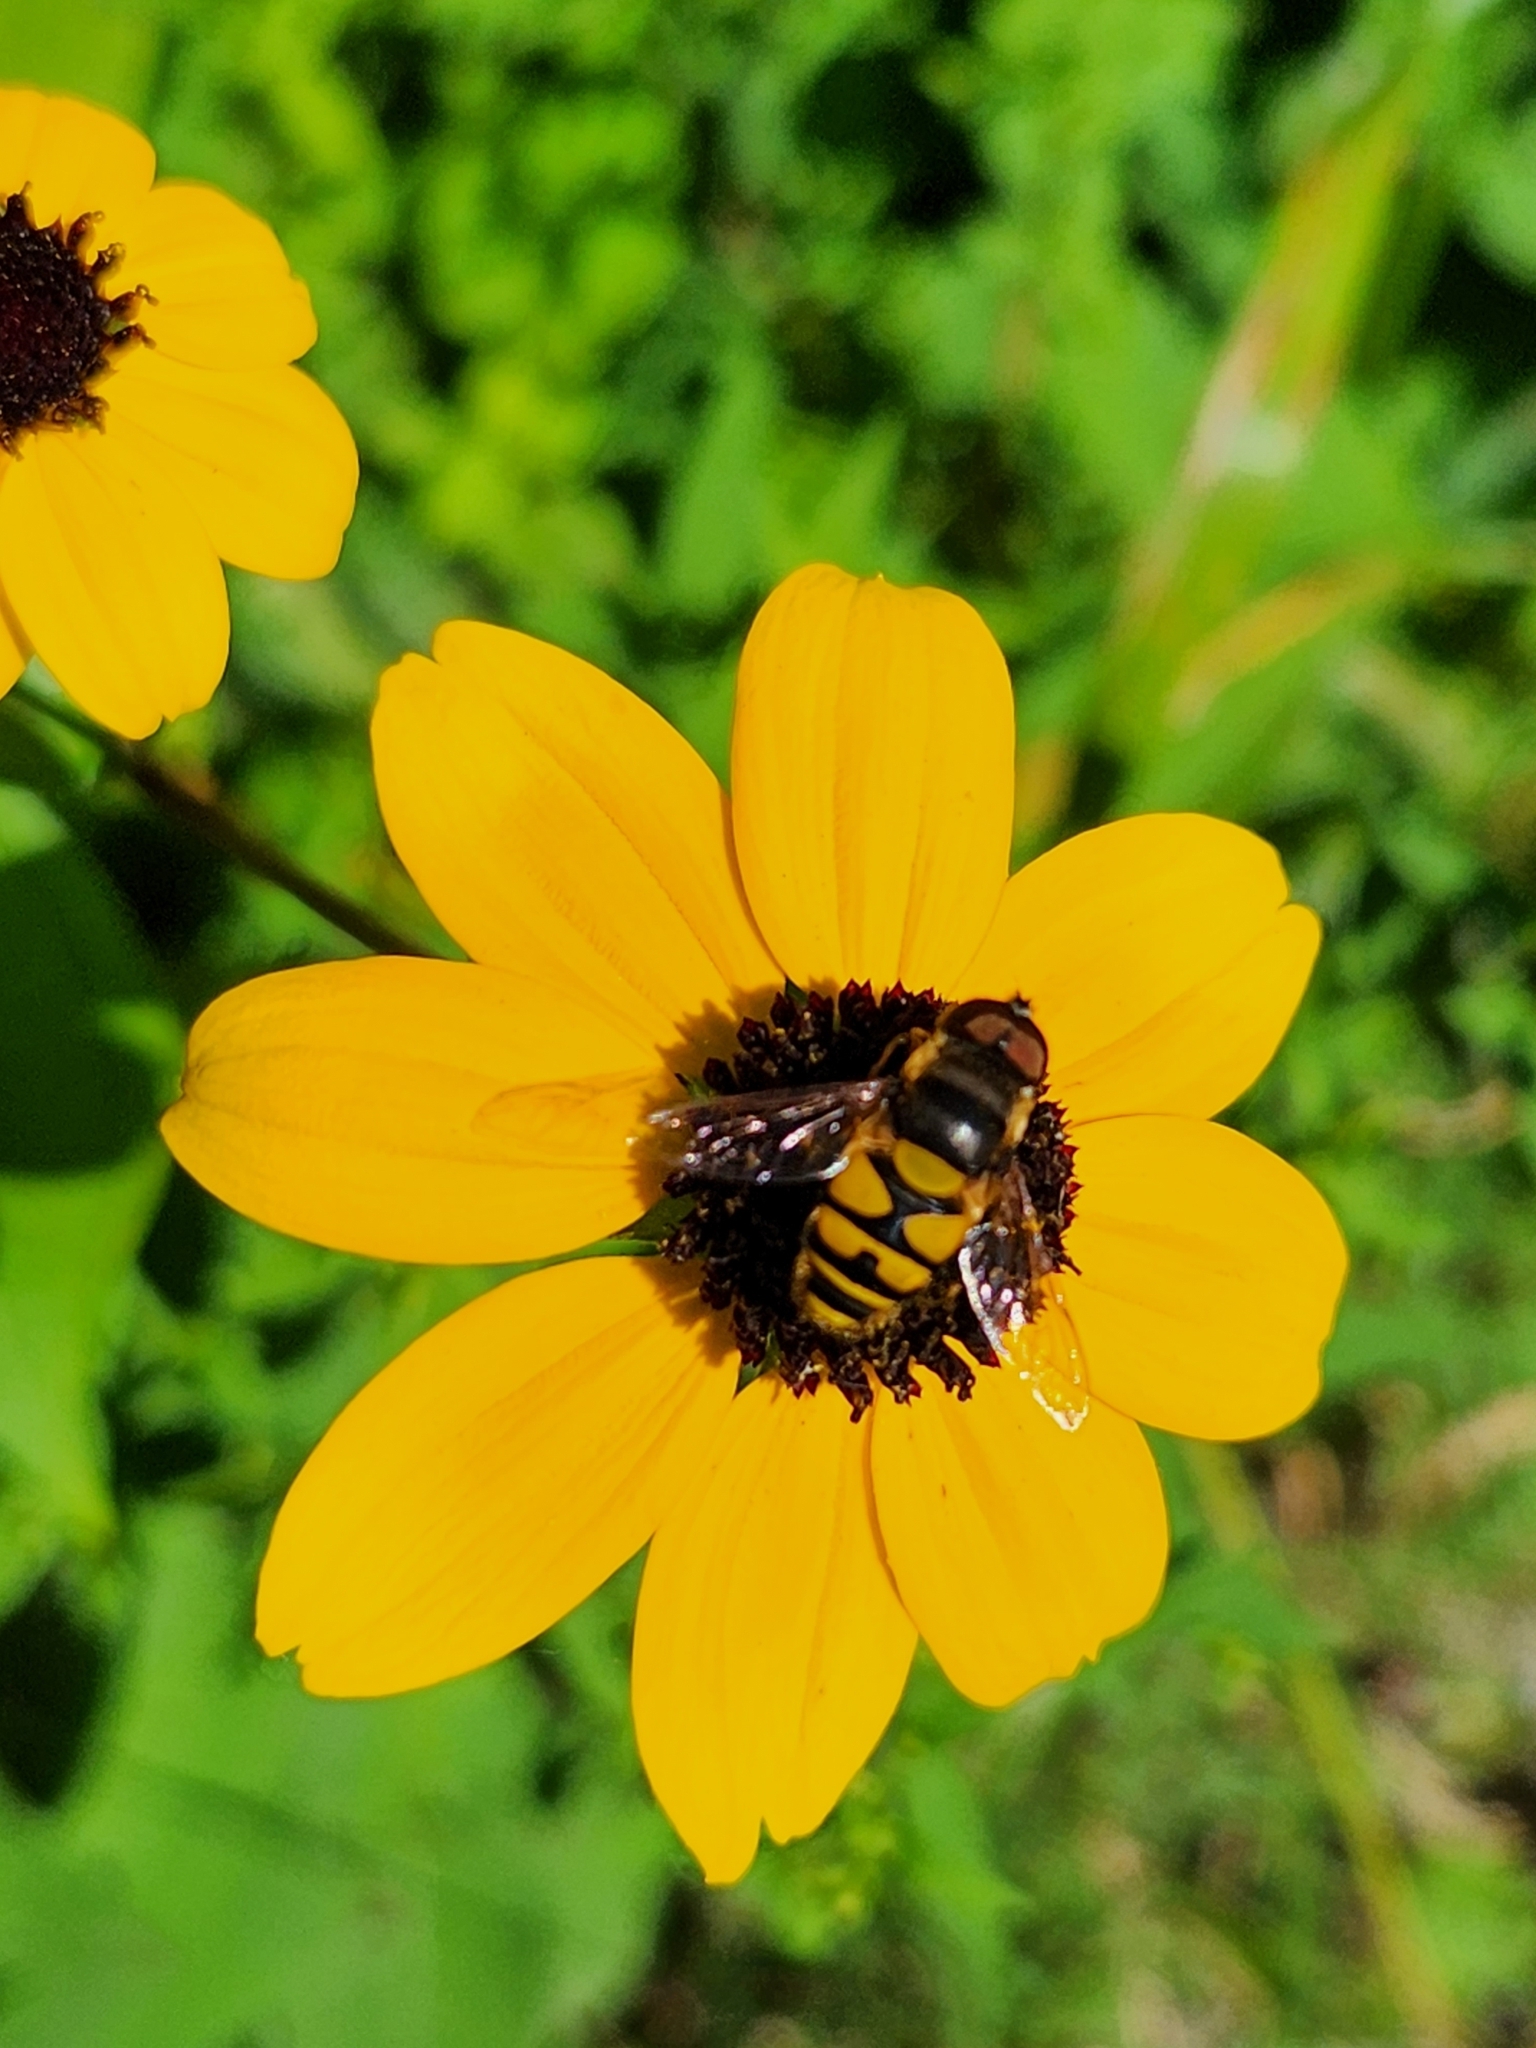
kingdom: Animalia
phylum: Arthropoda
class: Insecta
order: Diptera
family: Syrphidae
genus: Eristalis
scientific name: Eristalis transversa
